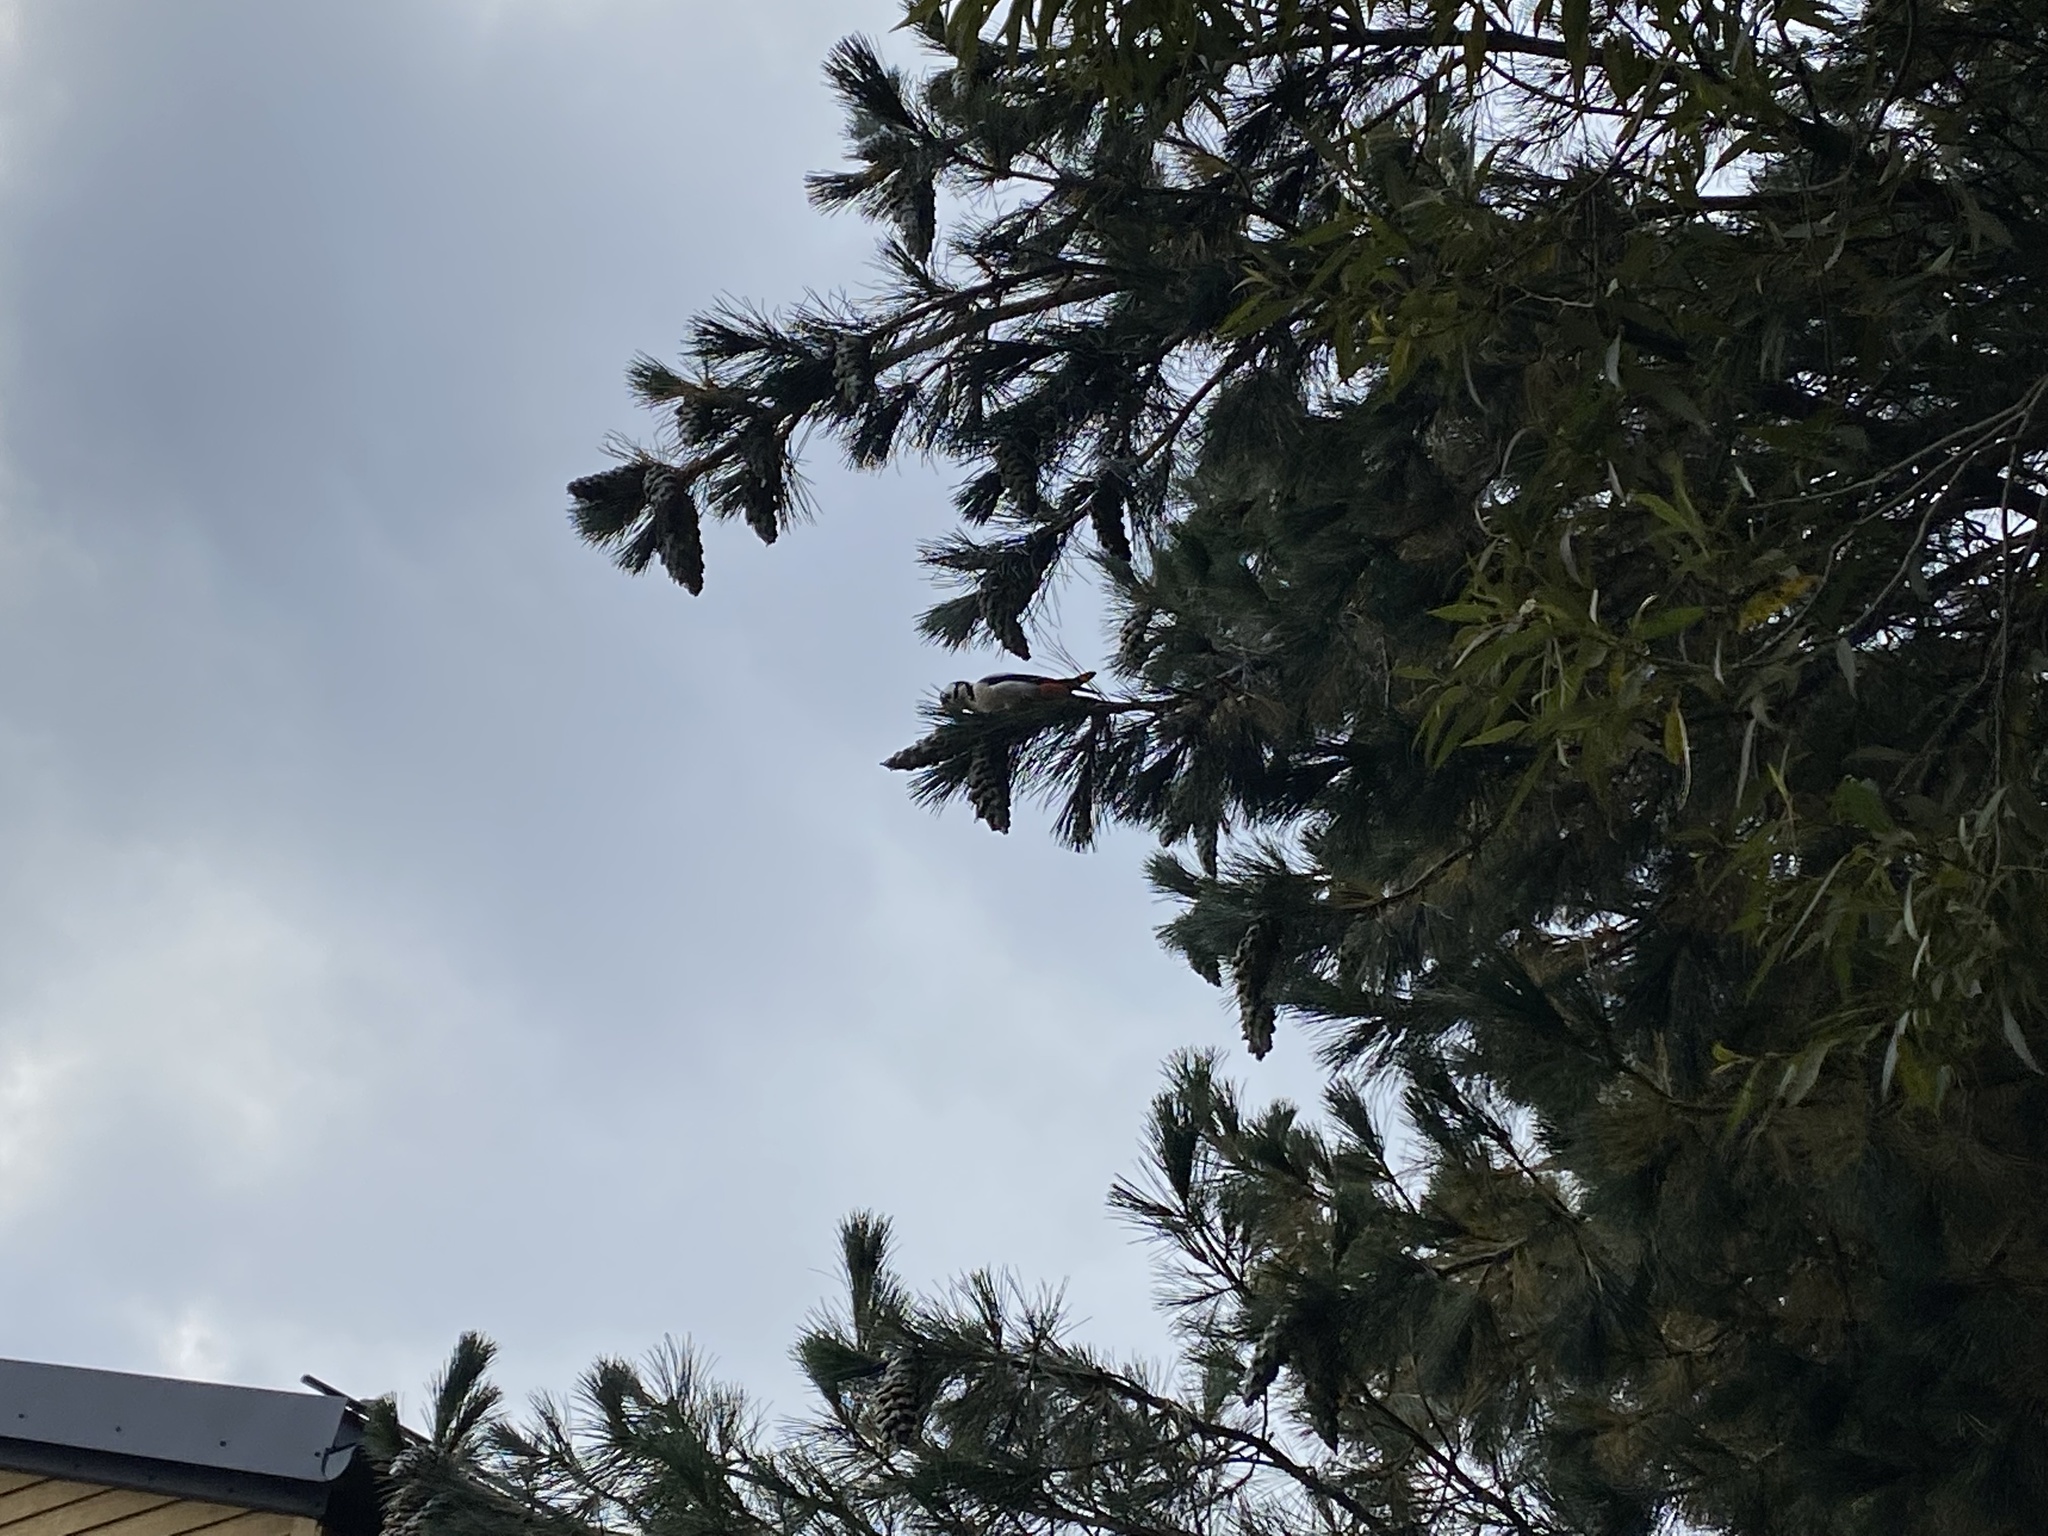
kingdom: Animalia
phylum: Chordata
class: Aves
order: Piciformes
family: Picidae
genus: Dendrocopos
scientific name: Dendrocopos major
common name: Great spotted woodpecker
